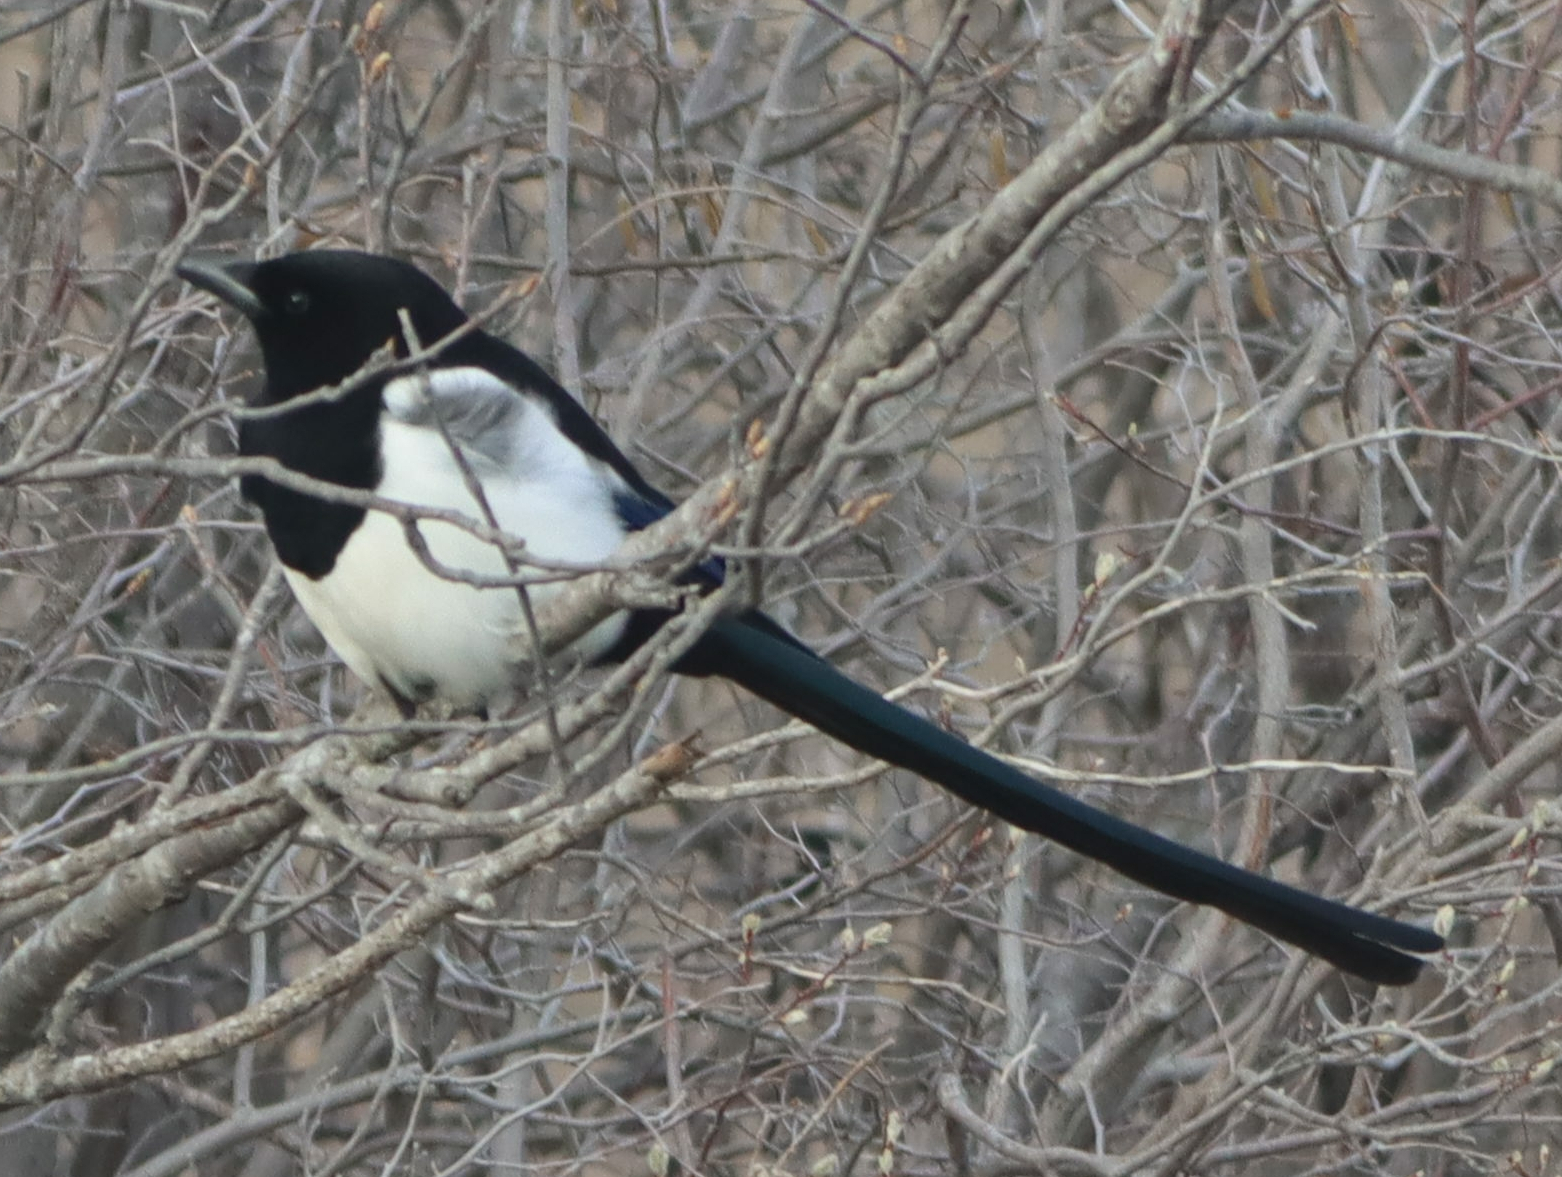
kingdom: Animalia
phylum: Chordata
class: Aves
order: Passeriformes
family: Corvidae
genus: Pica
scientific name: Pica hudsonia
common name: Black-billed magpie
